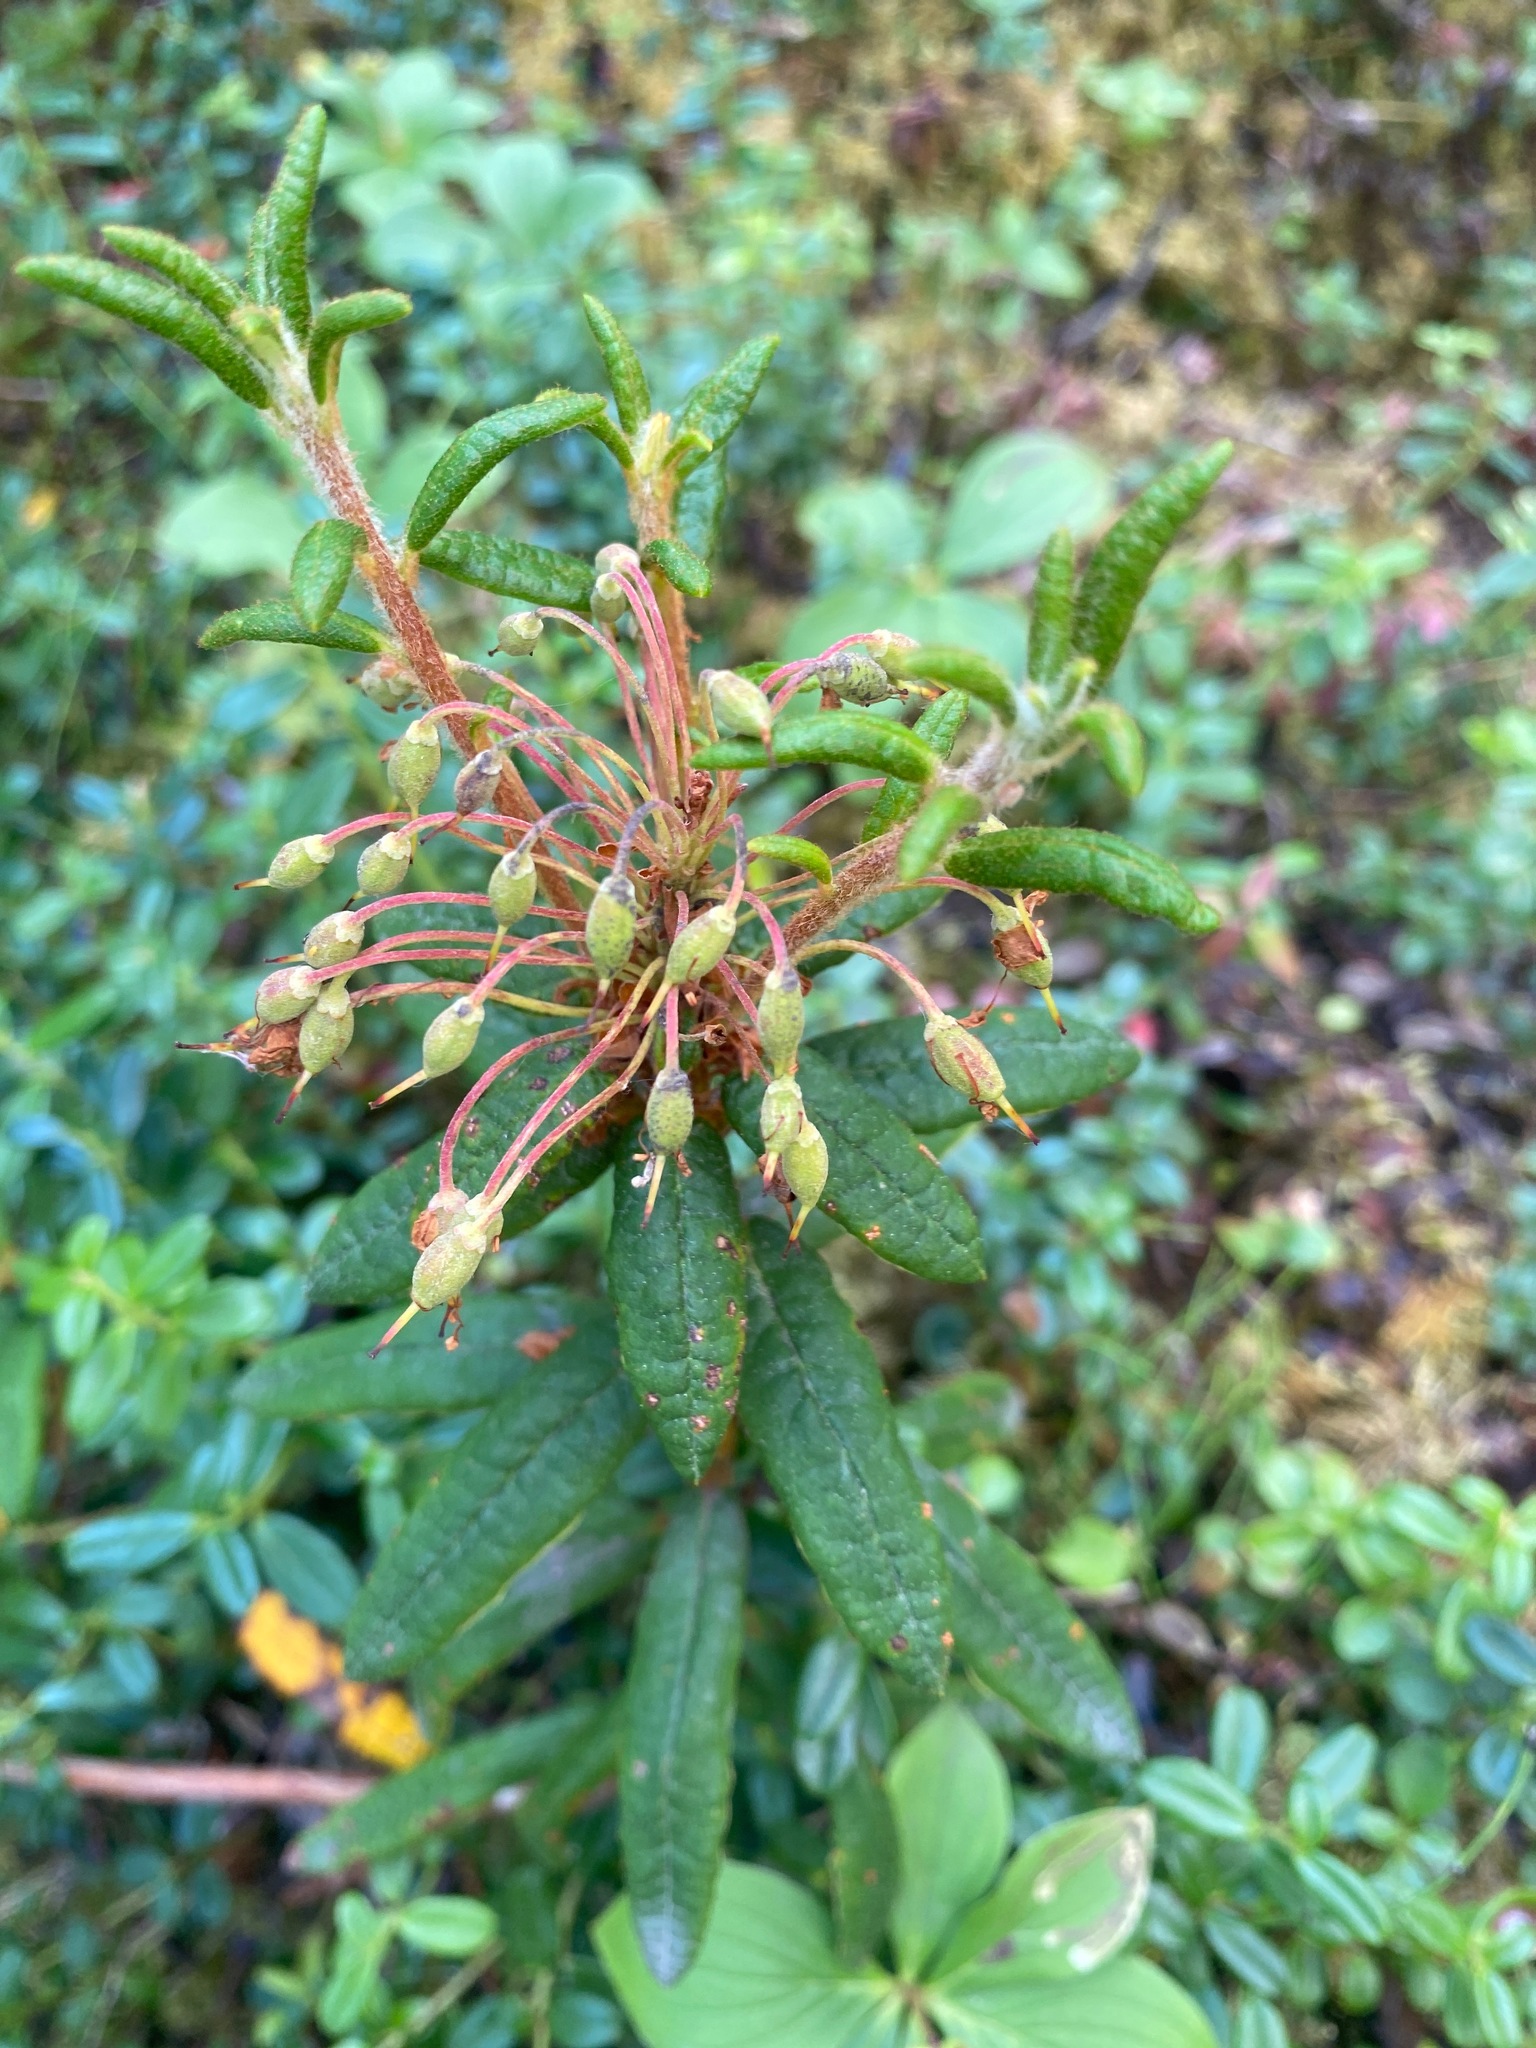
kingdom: Plantae
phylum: Tracheophyta
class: Magnoliopsida
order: Ericales
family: Ericaceae
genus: Rhododendron
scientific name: Rhododendron groenlandicum
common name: Bog labrador tea
